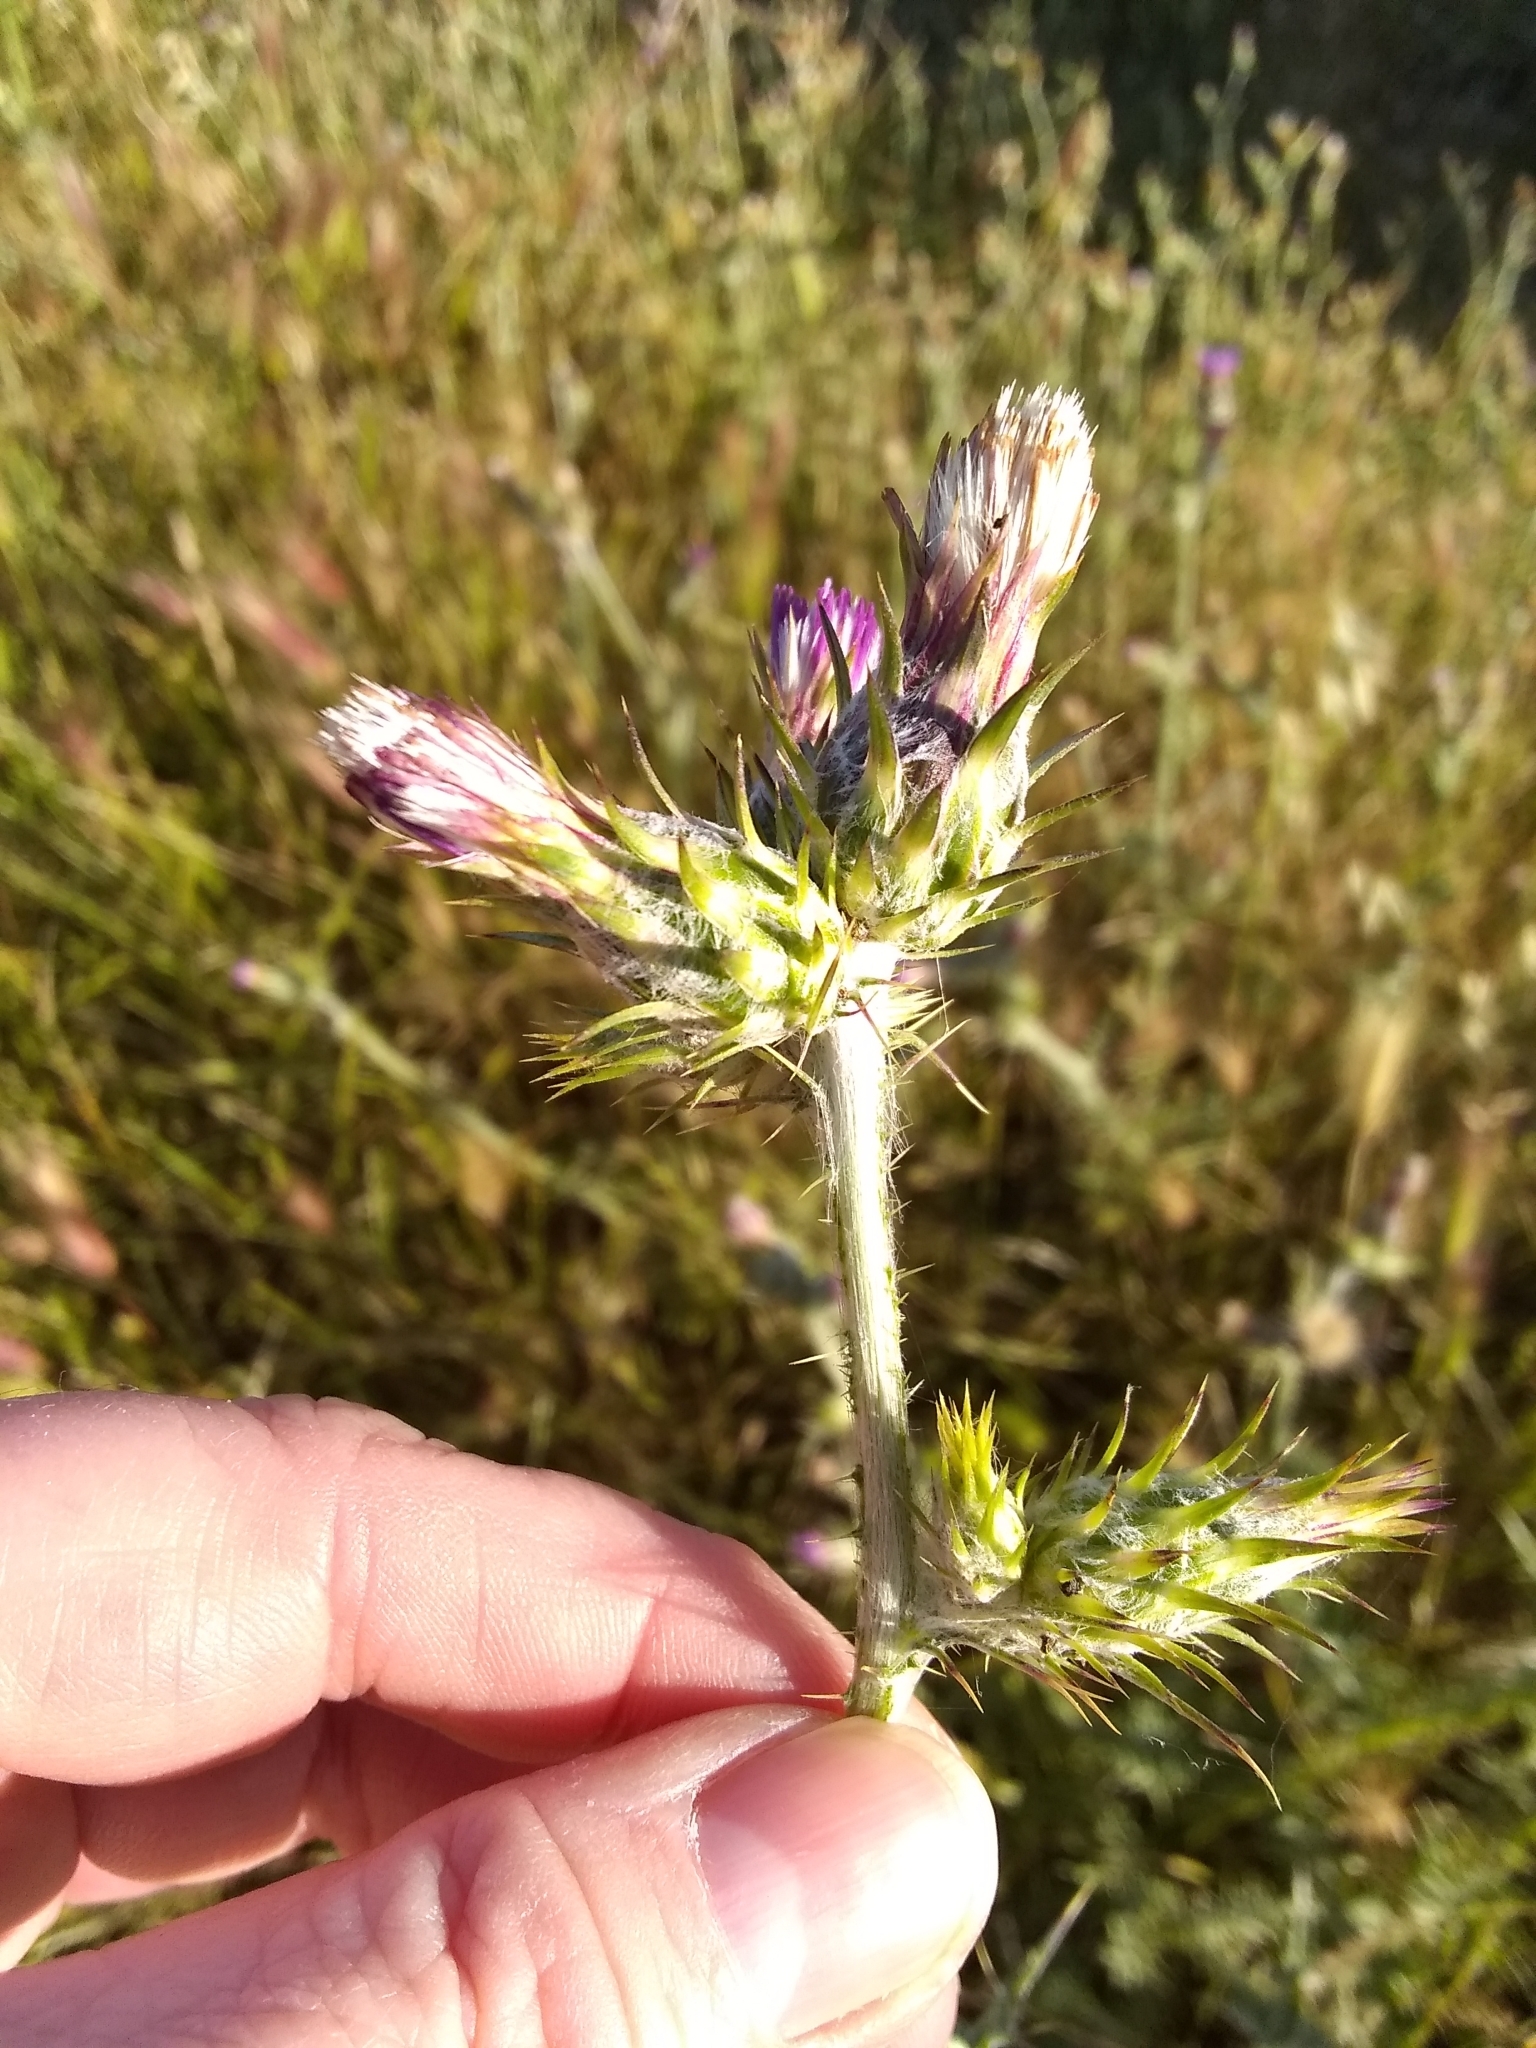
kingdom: Plantae
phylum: Tracheophyta
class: Magnoliopsida
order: Asterales
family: Asteraceae
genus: Carduus
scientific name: Carduus pycnocephalus
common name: Plymouth thistle
